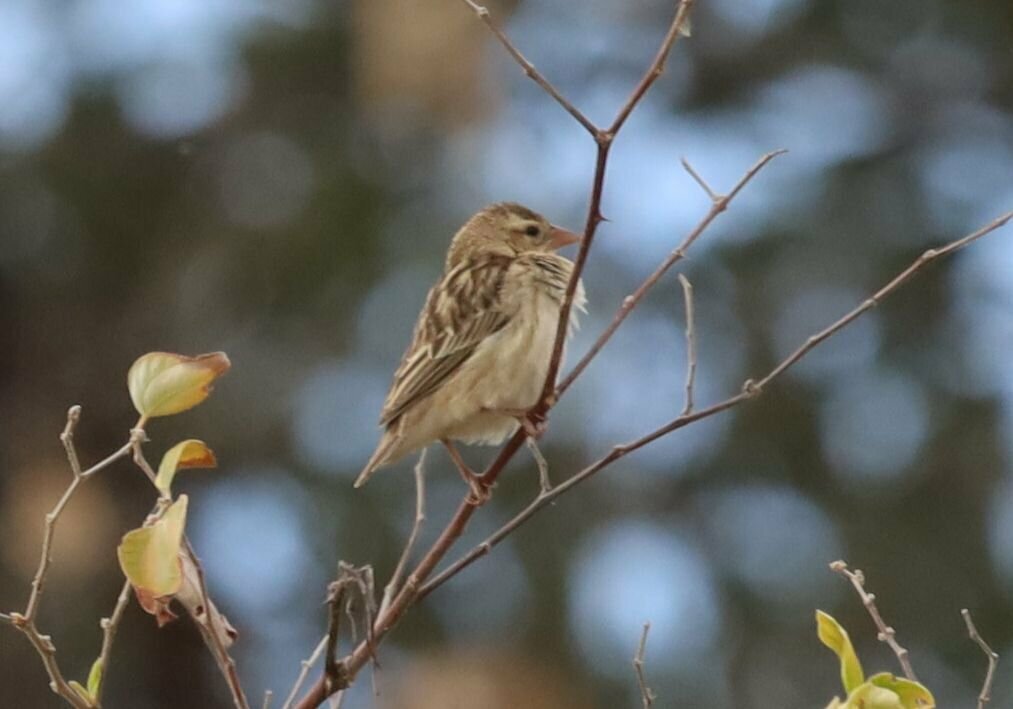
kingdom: Animalia
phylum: Chordata
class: Aves
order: Passeriformes
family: Ploceidae
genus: Euplectes
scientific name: Euplectes orix
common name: Southern red bishop
